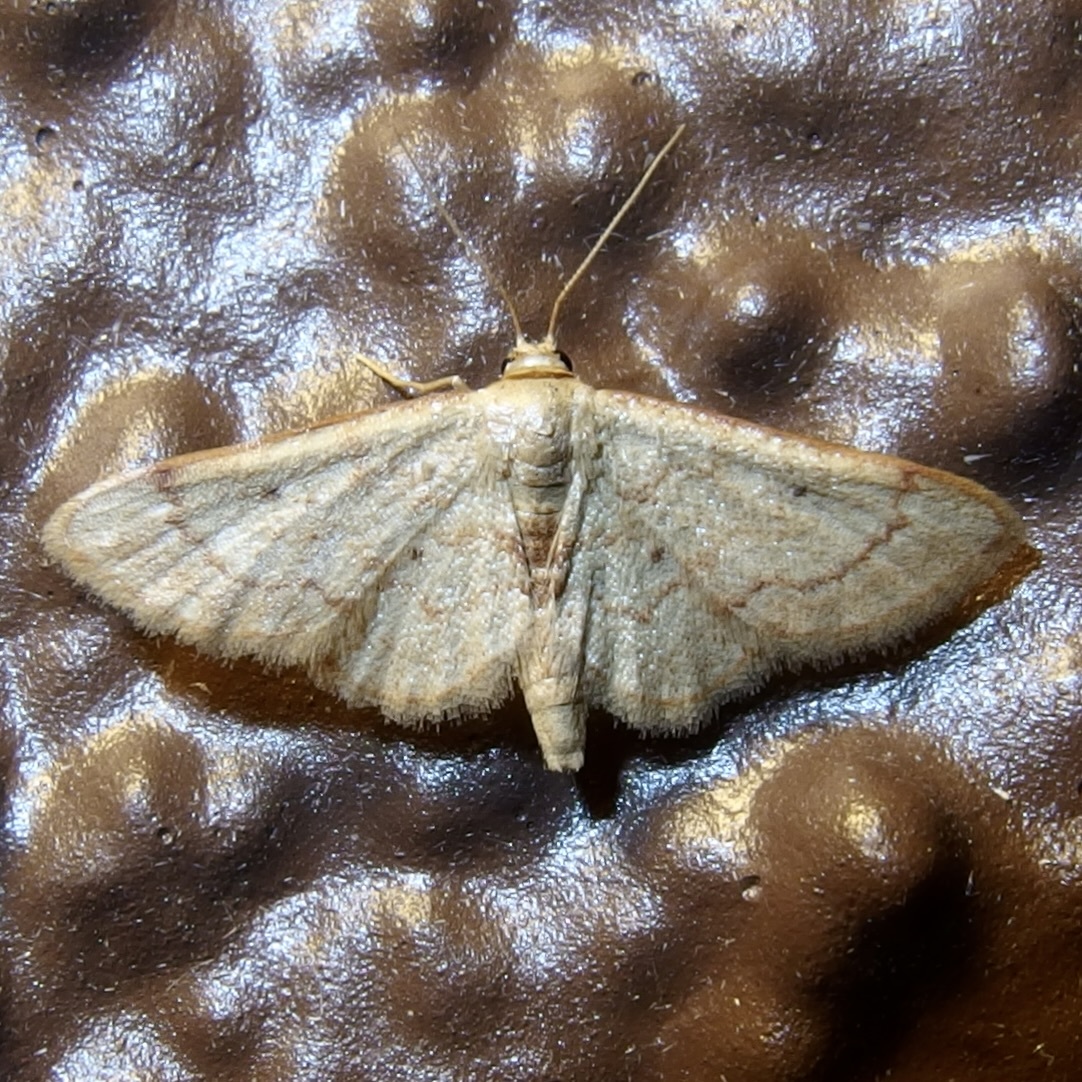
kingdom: Animalia
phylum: Arthropoda
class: Insecta
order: Lepidoptera
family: Geometridae
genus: Idaea
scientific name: Idaea demissaria
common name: Red-bordered wave
